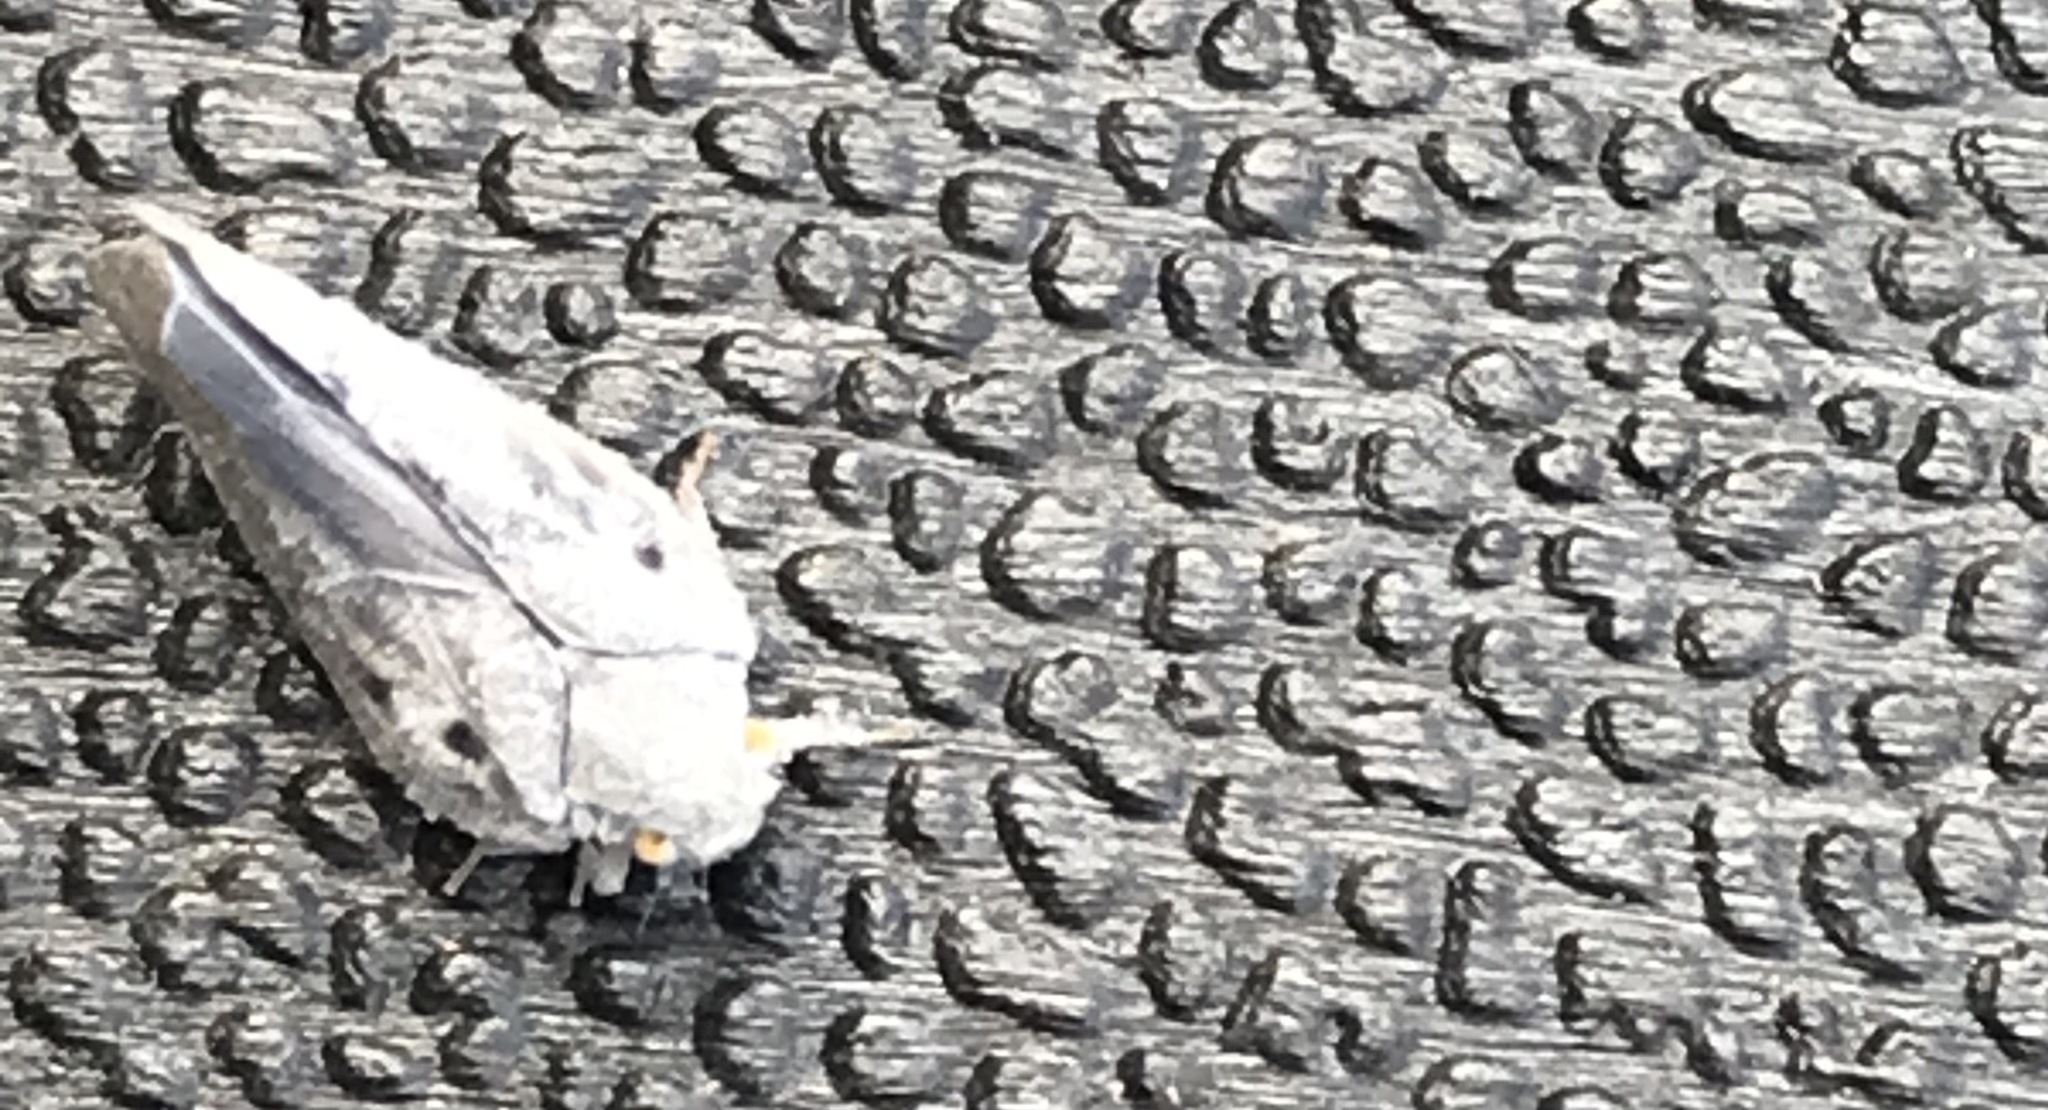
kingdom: Animalia
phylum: Arthropoda
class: Insecta
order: Hemiptera
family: Flatidae
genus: Metcalfa
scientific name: Metcalfa pruinosa
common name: Citrus flatid planthopper
